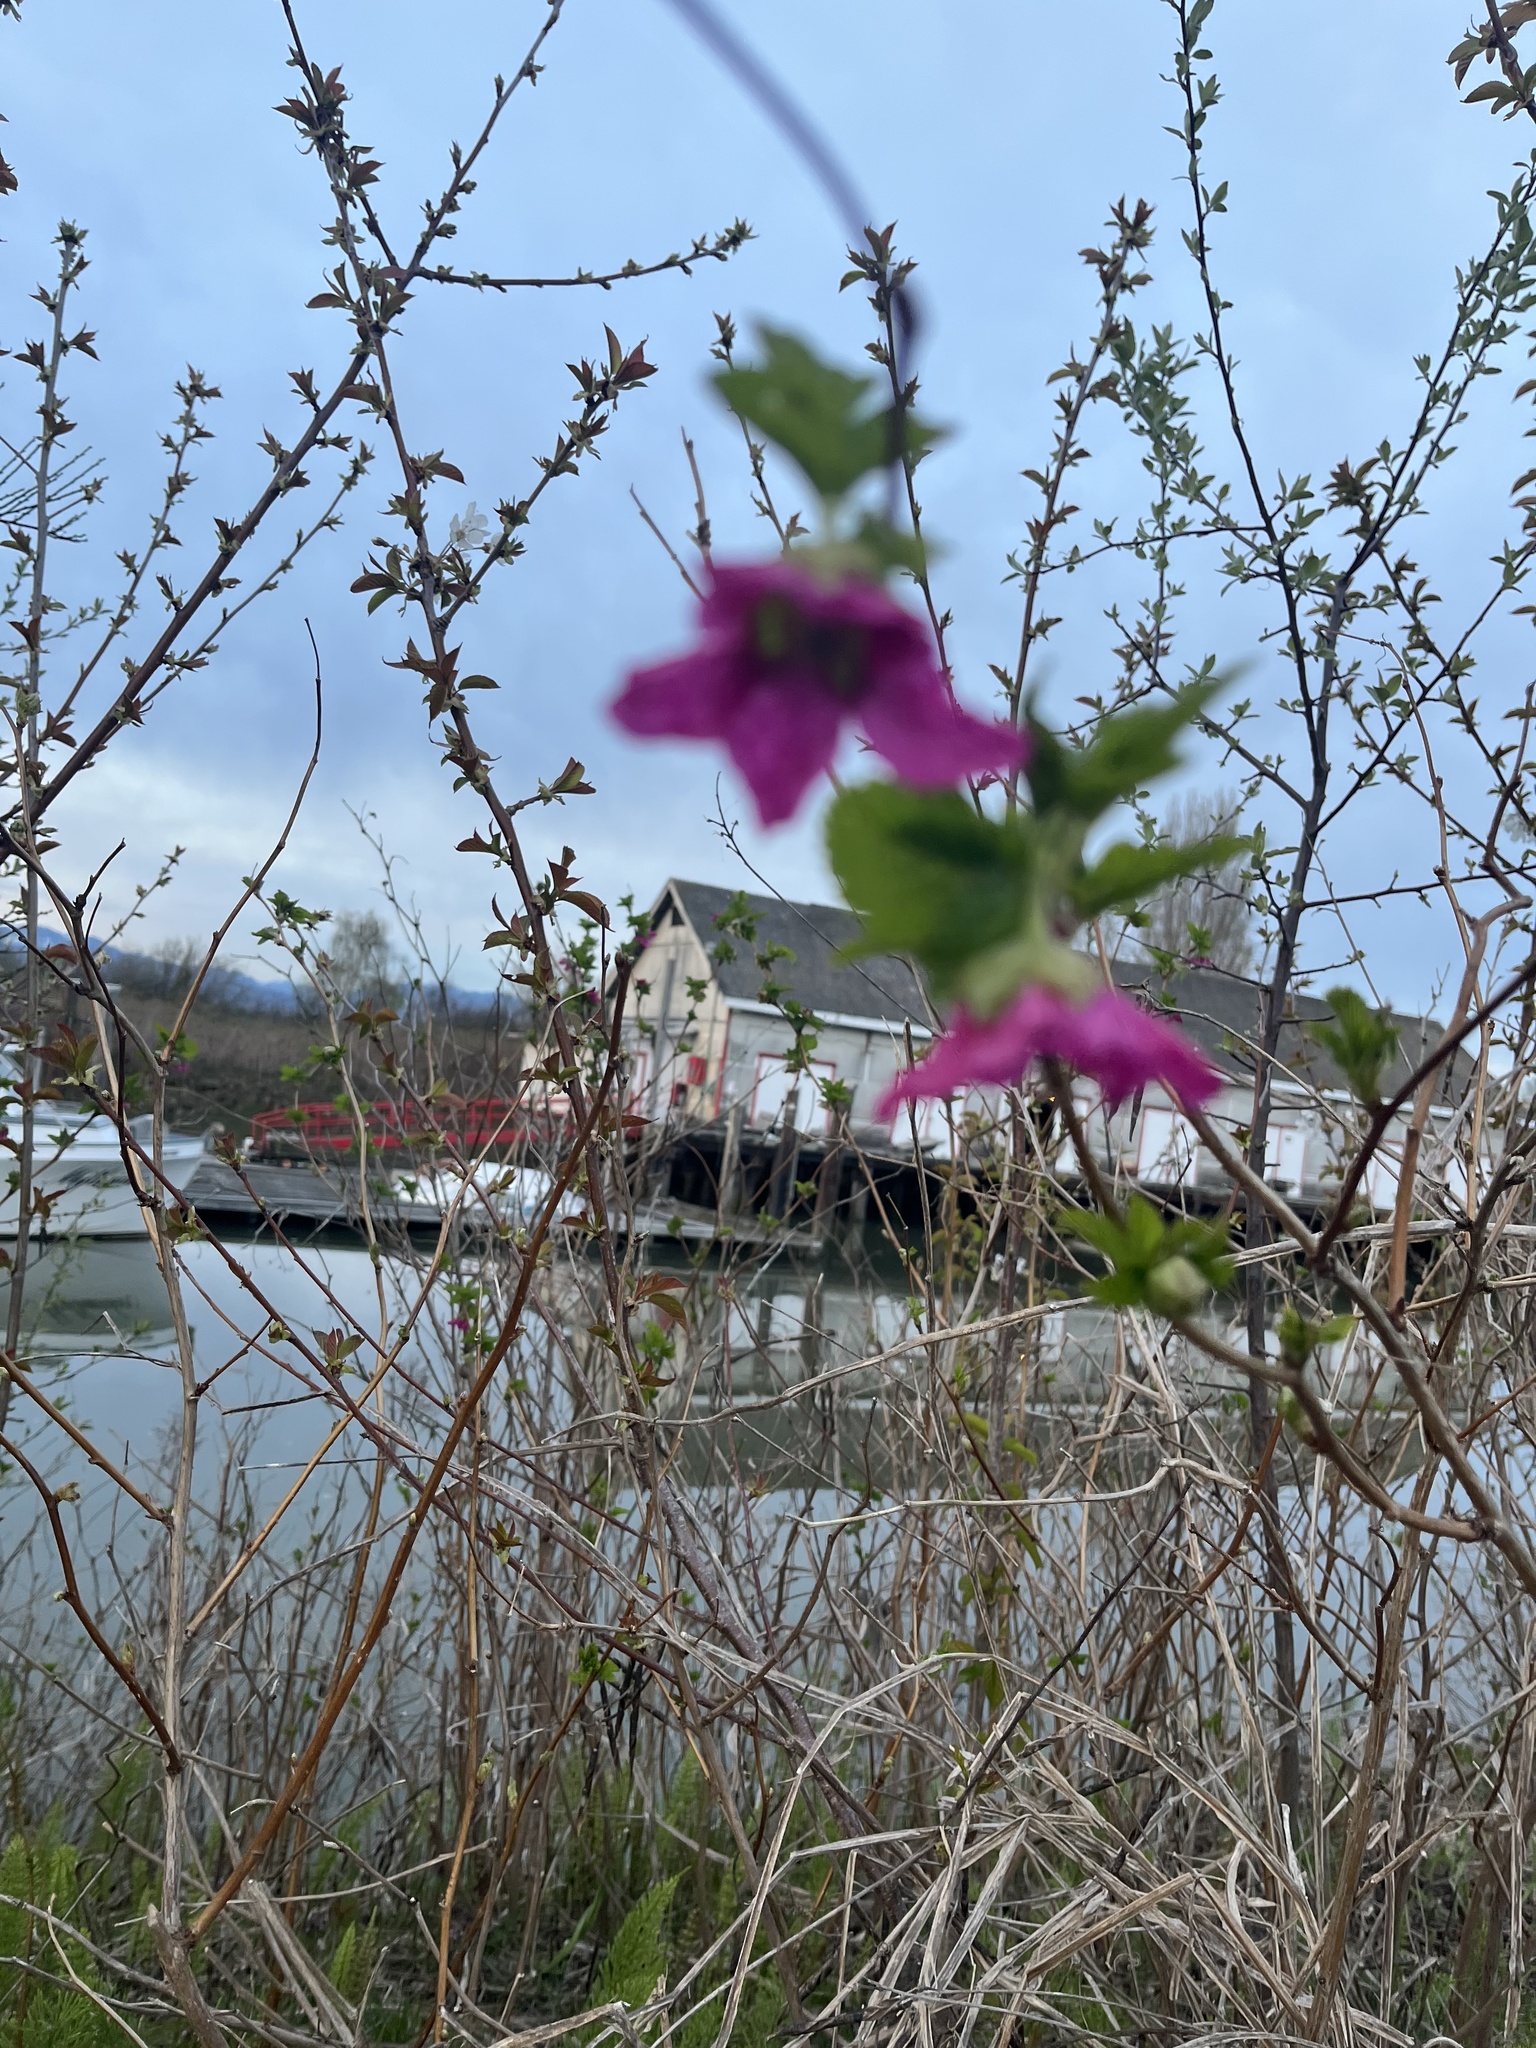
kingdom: Plantae
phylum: Tracheophyta
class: Magnoliopsida
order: Rosales
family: Rosaceae
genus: Rubus
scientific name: Rubus spectabilis
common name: Salmonberry
